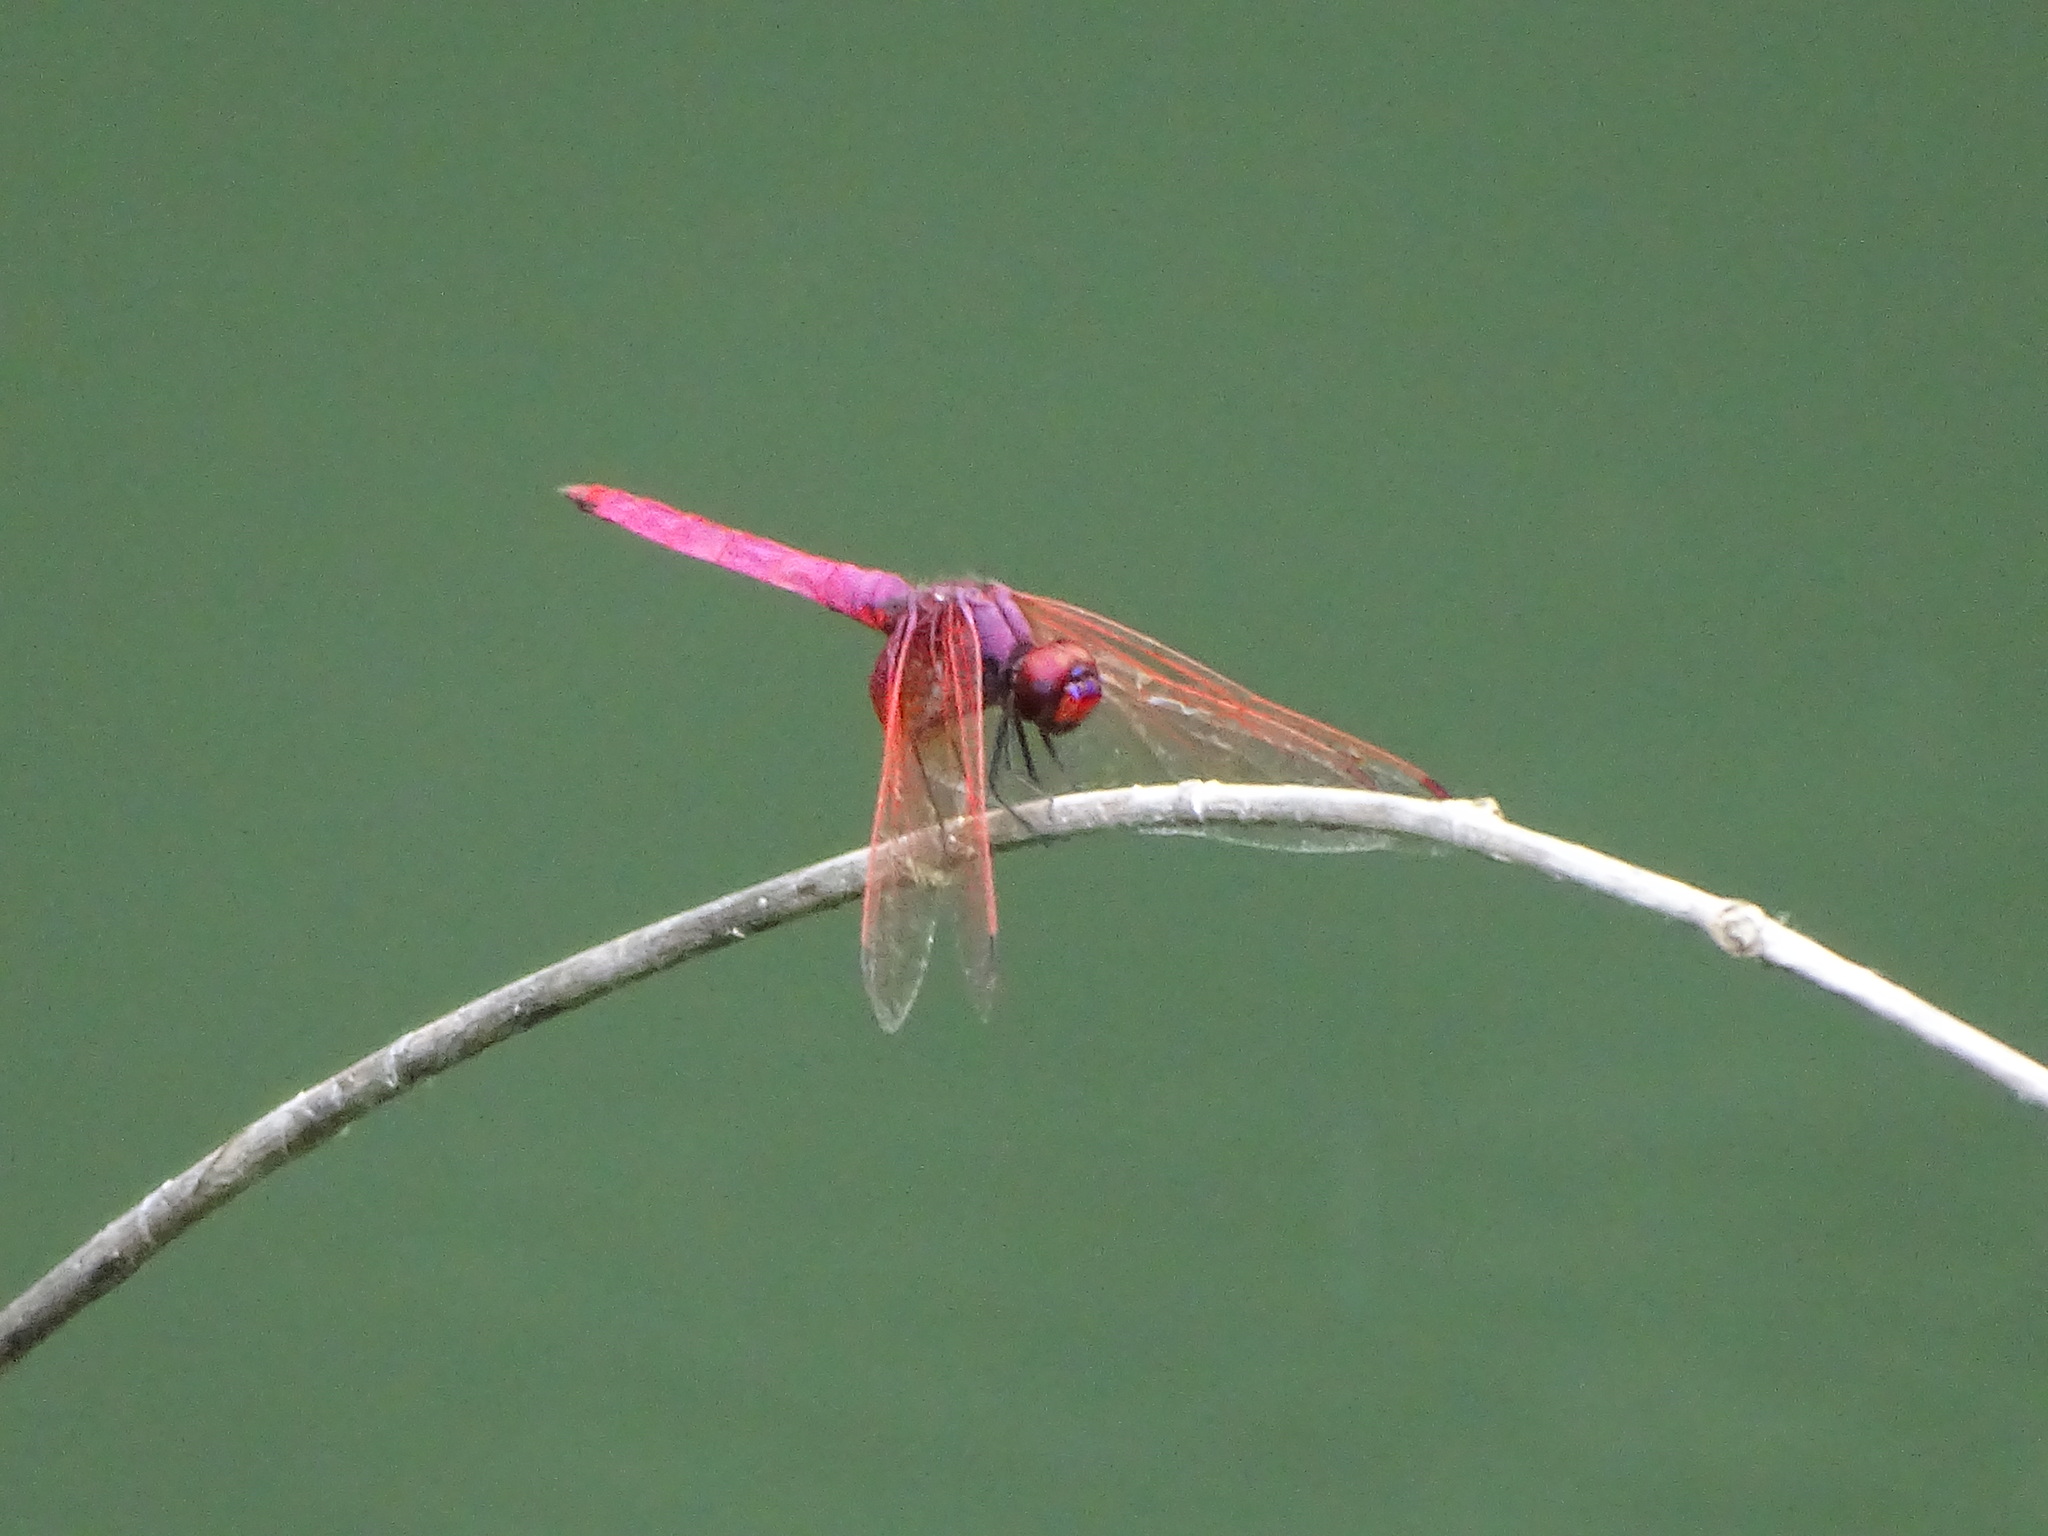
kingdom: Animalia
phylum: Arthropoda
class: Insecta
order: Odonata
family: Libellulidae
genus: Trithemis
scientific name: Trithemis aurora
